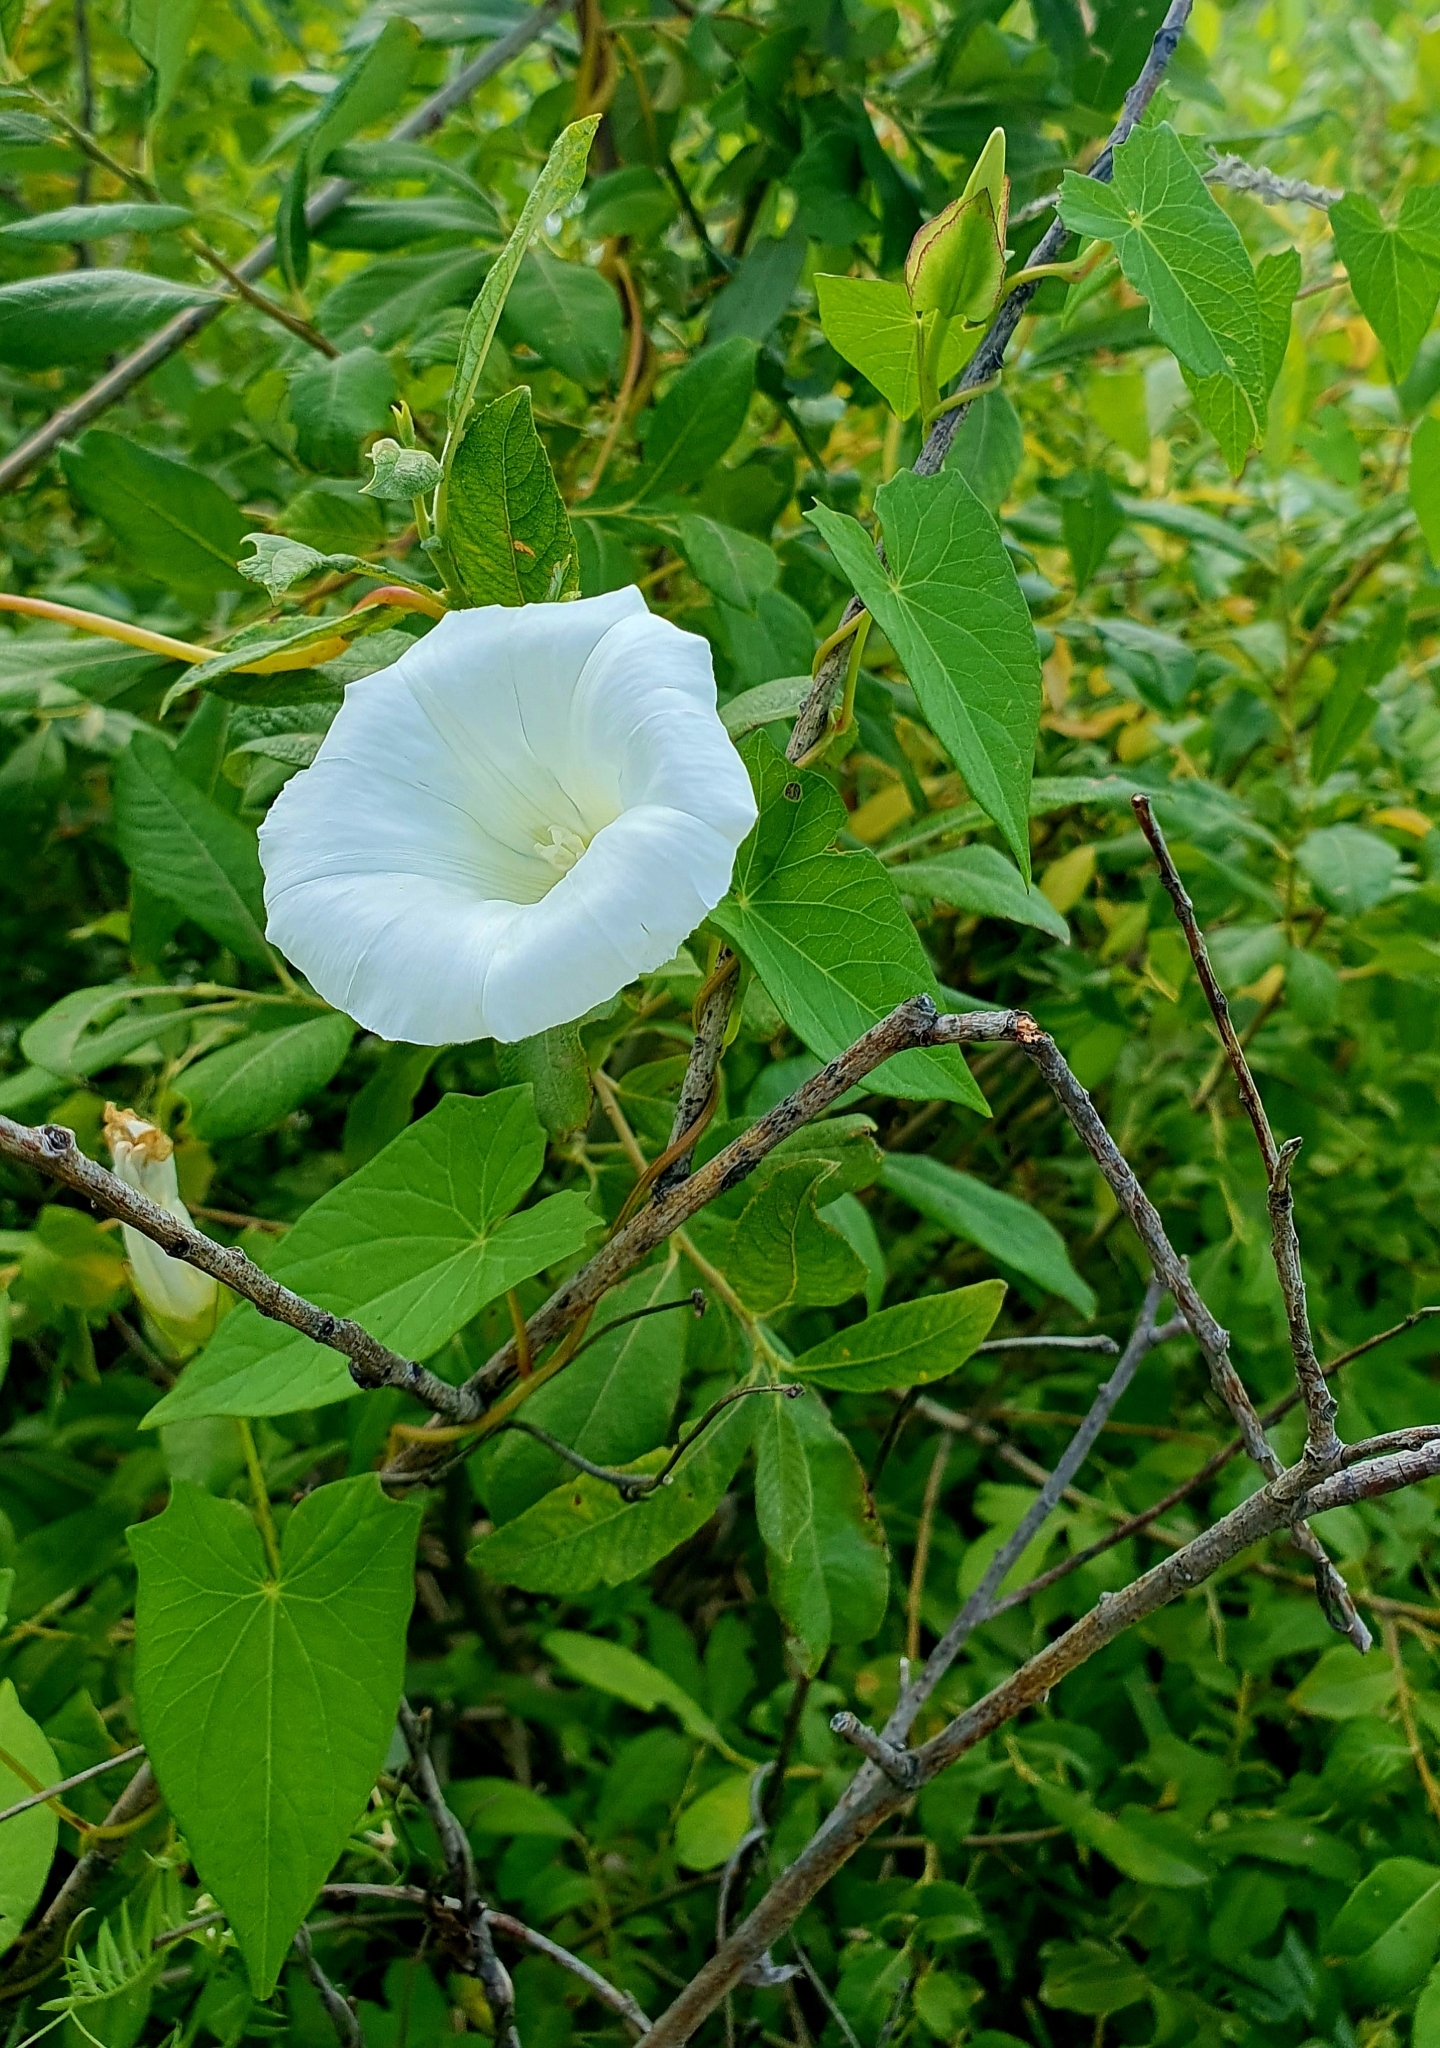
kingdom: Plantae
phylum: Tracheophyta
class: Magnoliopsida
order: Solanales
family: Convolvulaceae
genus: Calystegia
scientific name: Calystegia sepium
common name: Hedge bindweed
